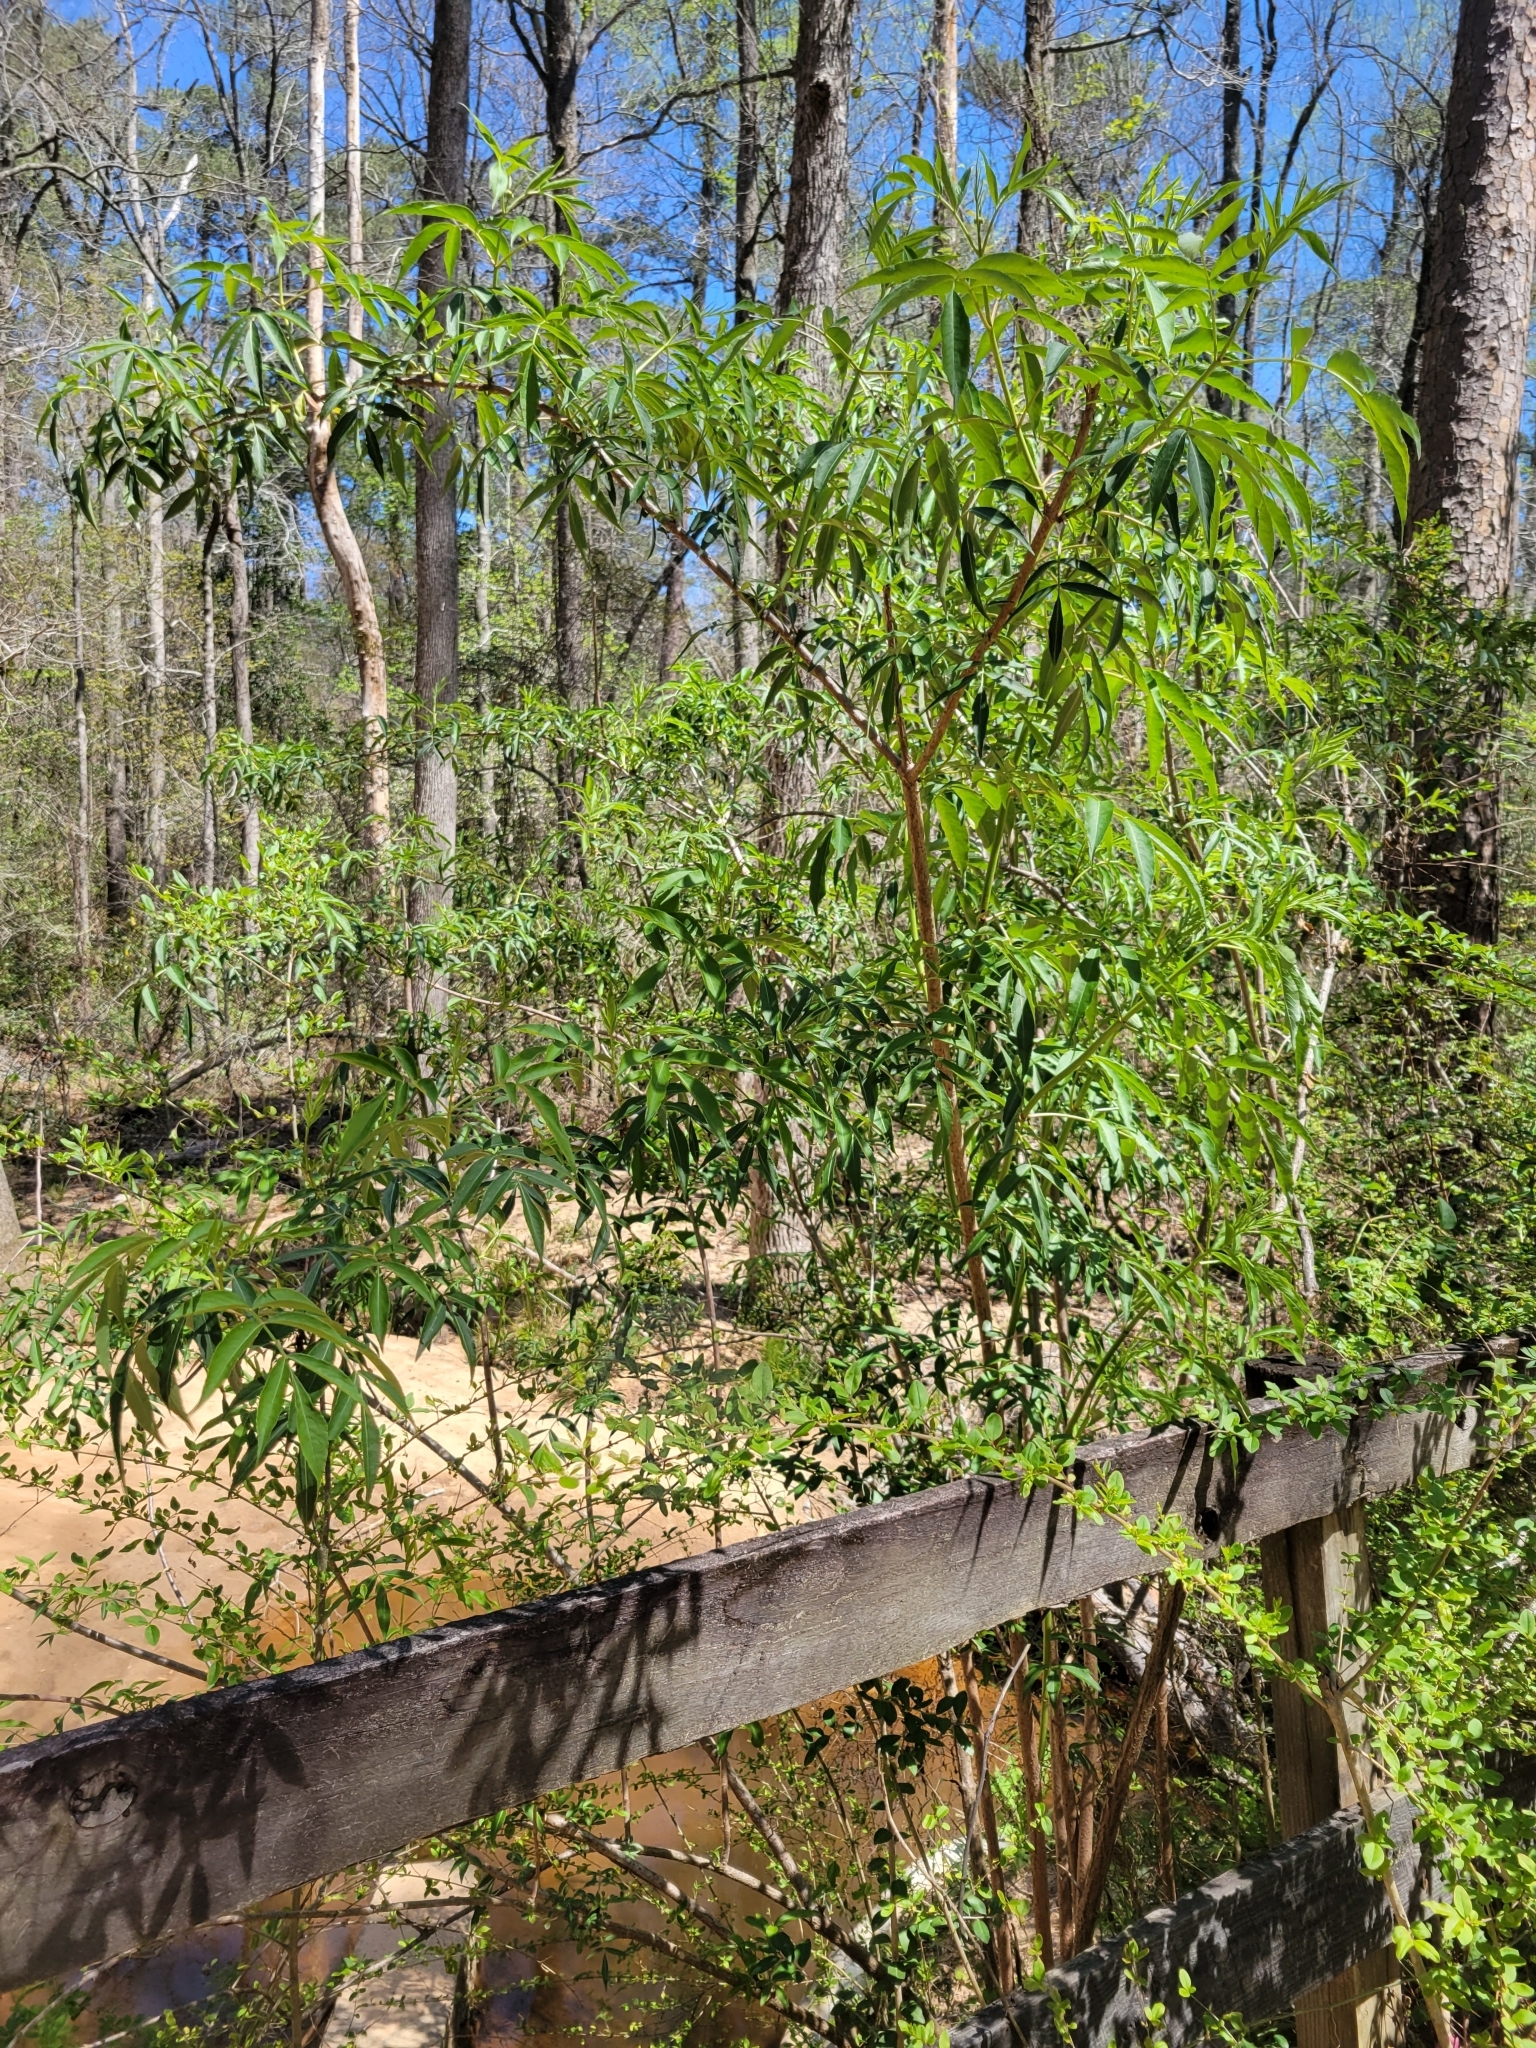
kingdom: Plantae
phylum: Tracheophyta
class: Magnoliopsida
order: Dipsacales
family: Viburnaceae
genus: Sambucus
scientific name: Sambucus canadensis
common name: American elder
